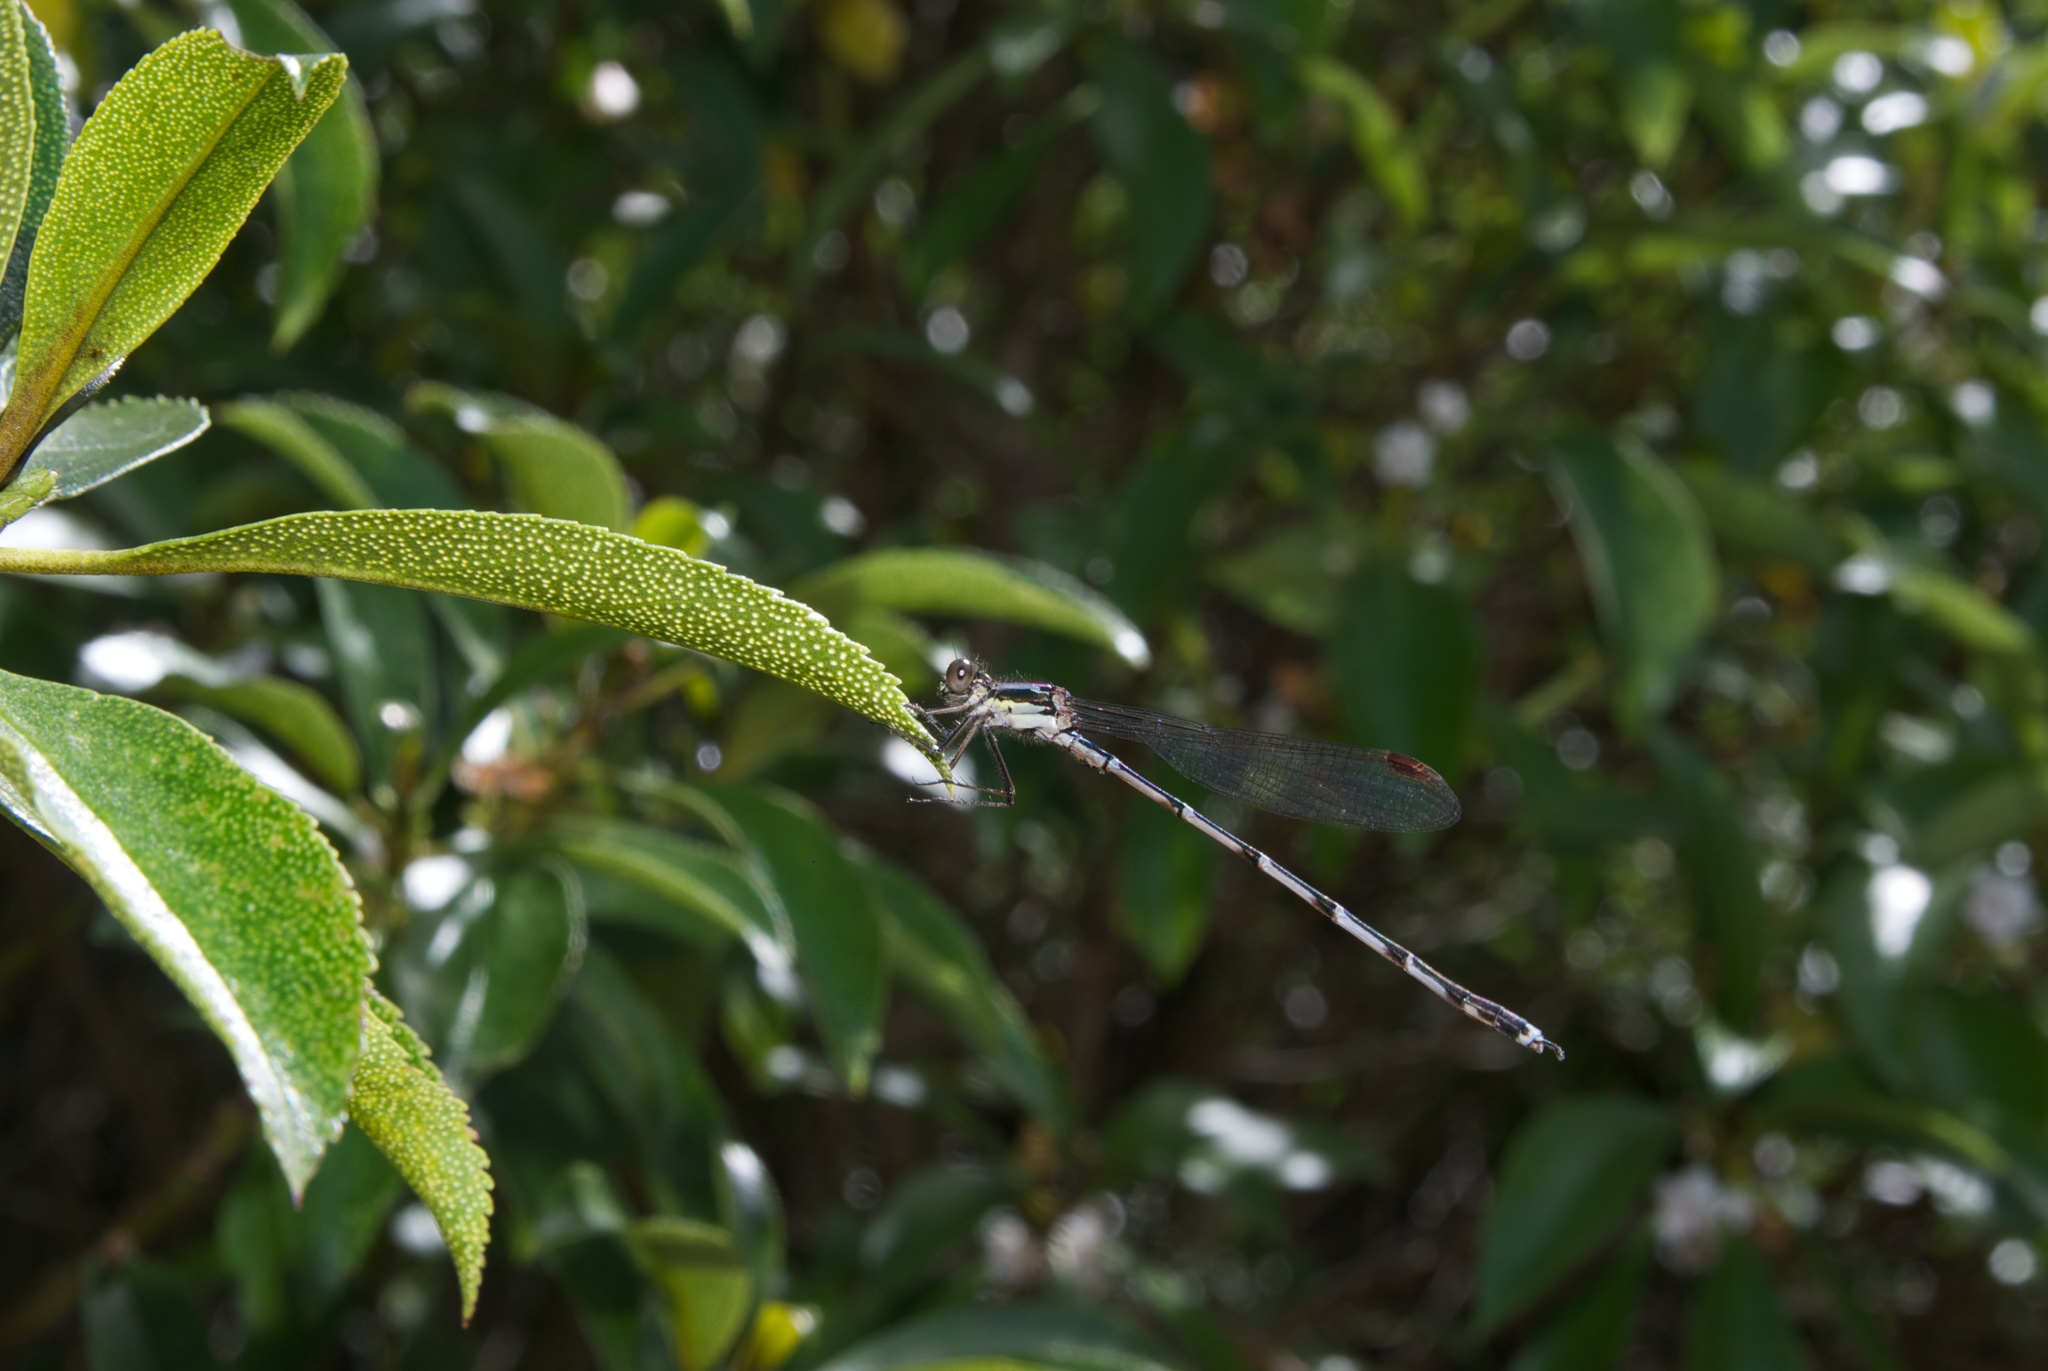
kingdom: Animalia
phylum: Arthropoda
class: Insecta
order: Odonata
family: Lestidae
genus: Austrolestes
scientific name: Austrolestes colensonis
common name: Blue damselfly
